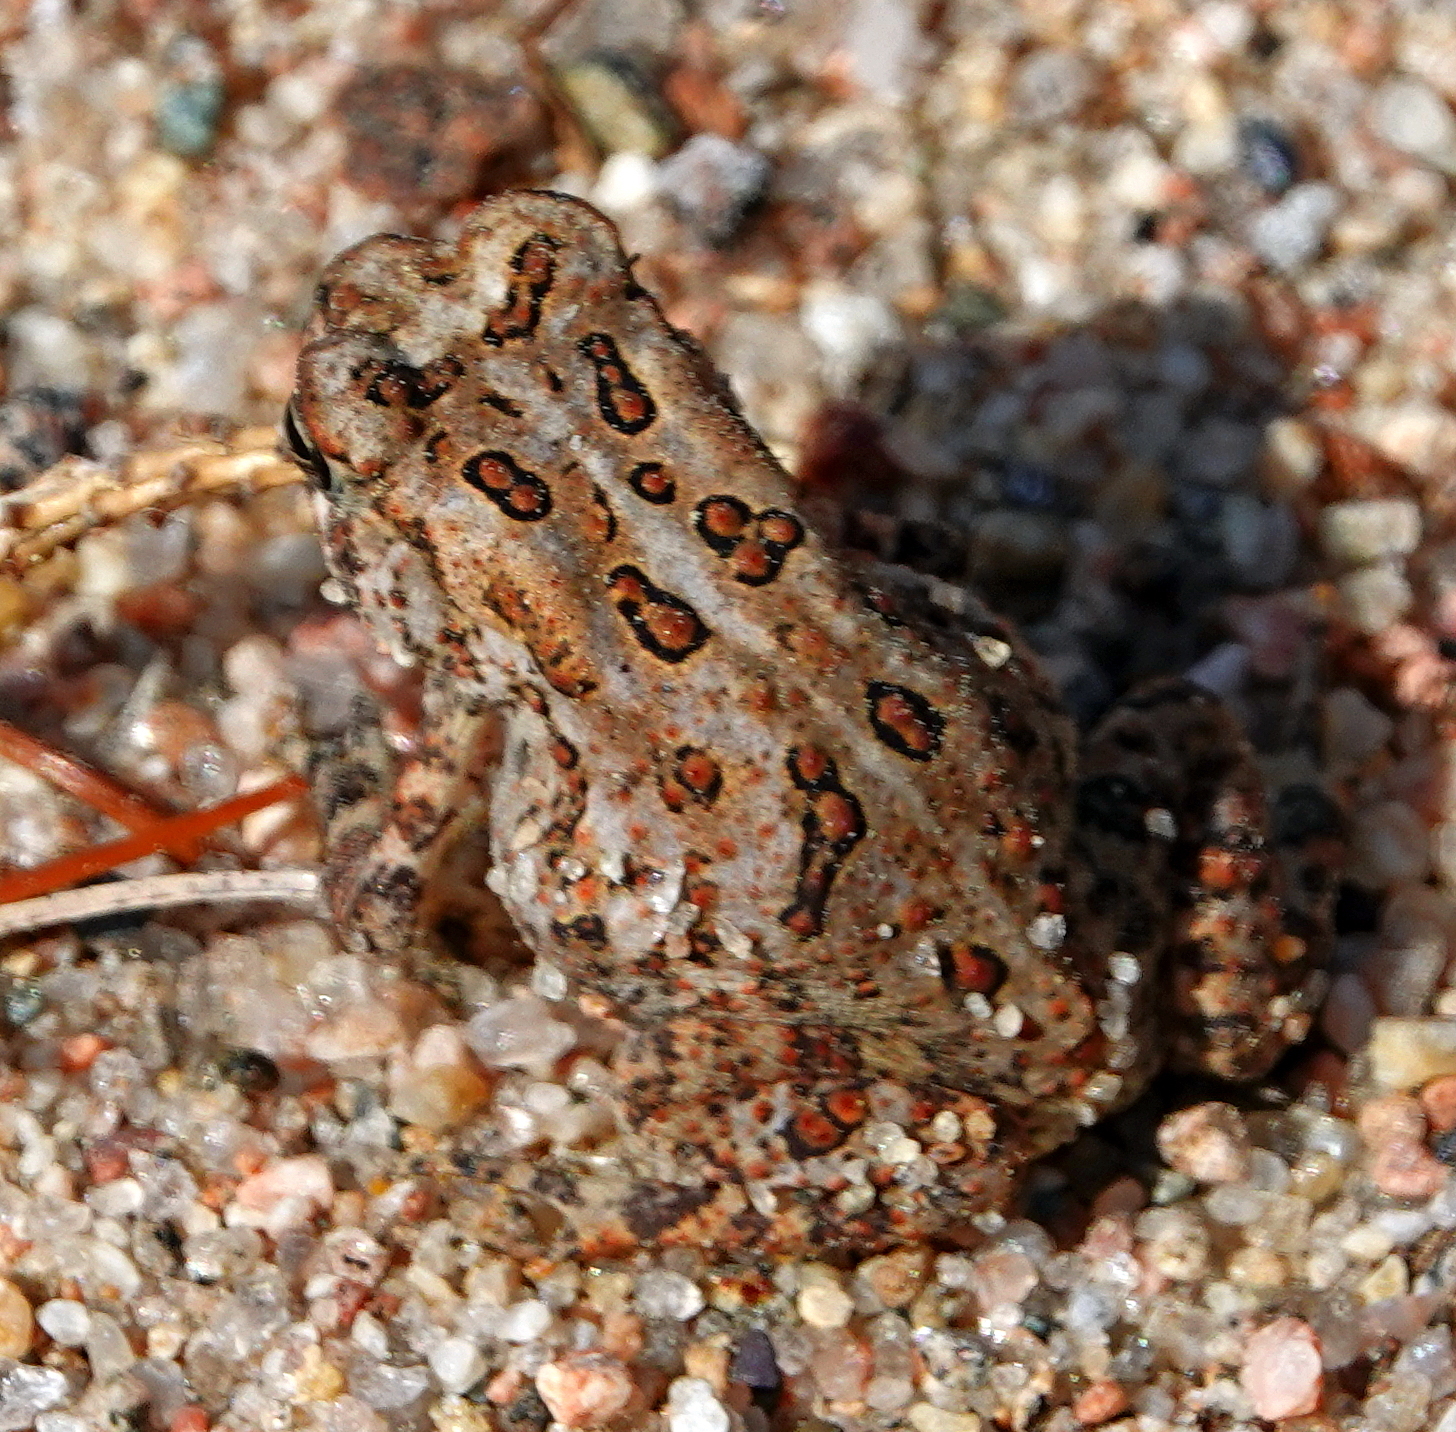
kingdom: Animalia
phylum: Chordata
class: Amphibia
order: Anura
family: Bufonidae
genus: Anaxyrus
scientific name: Anaxyrus americanus
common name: American toad
